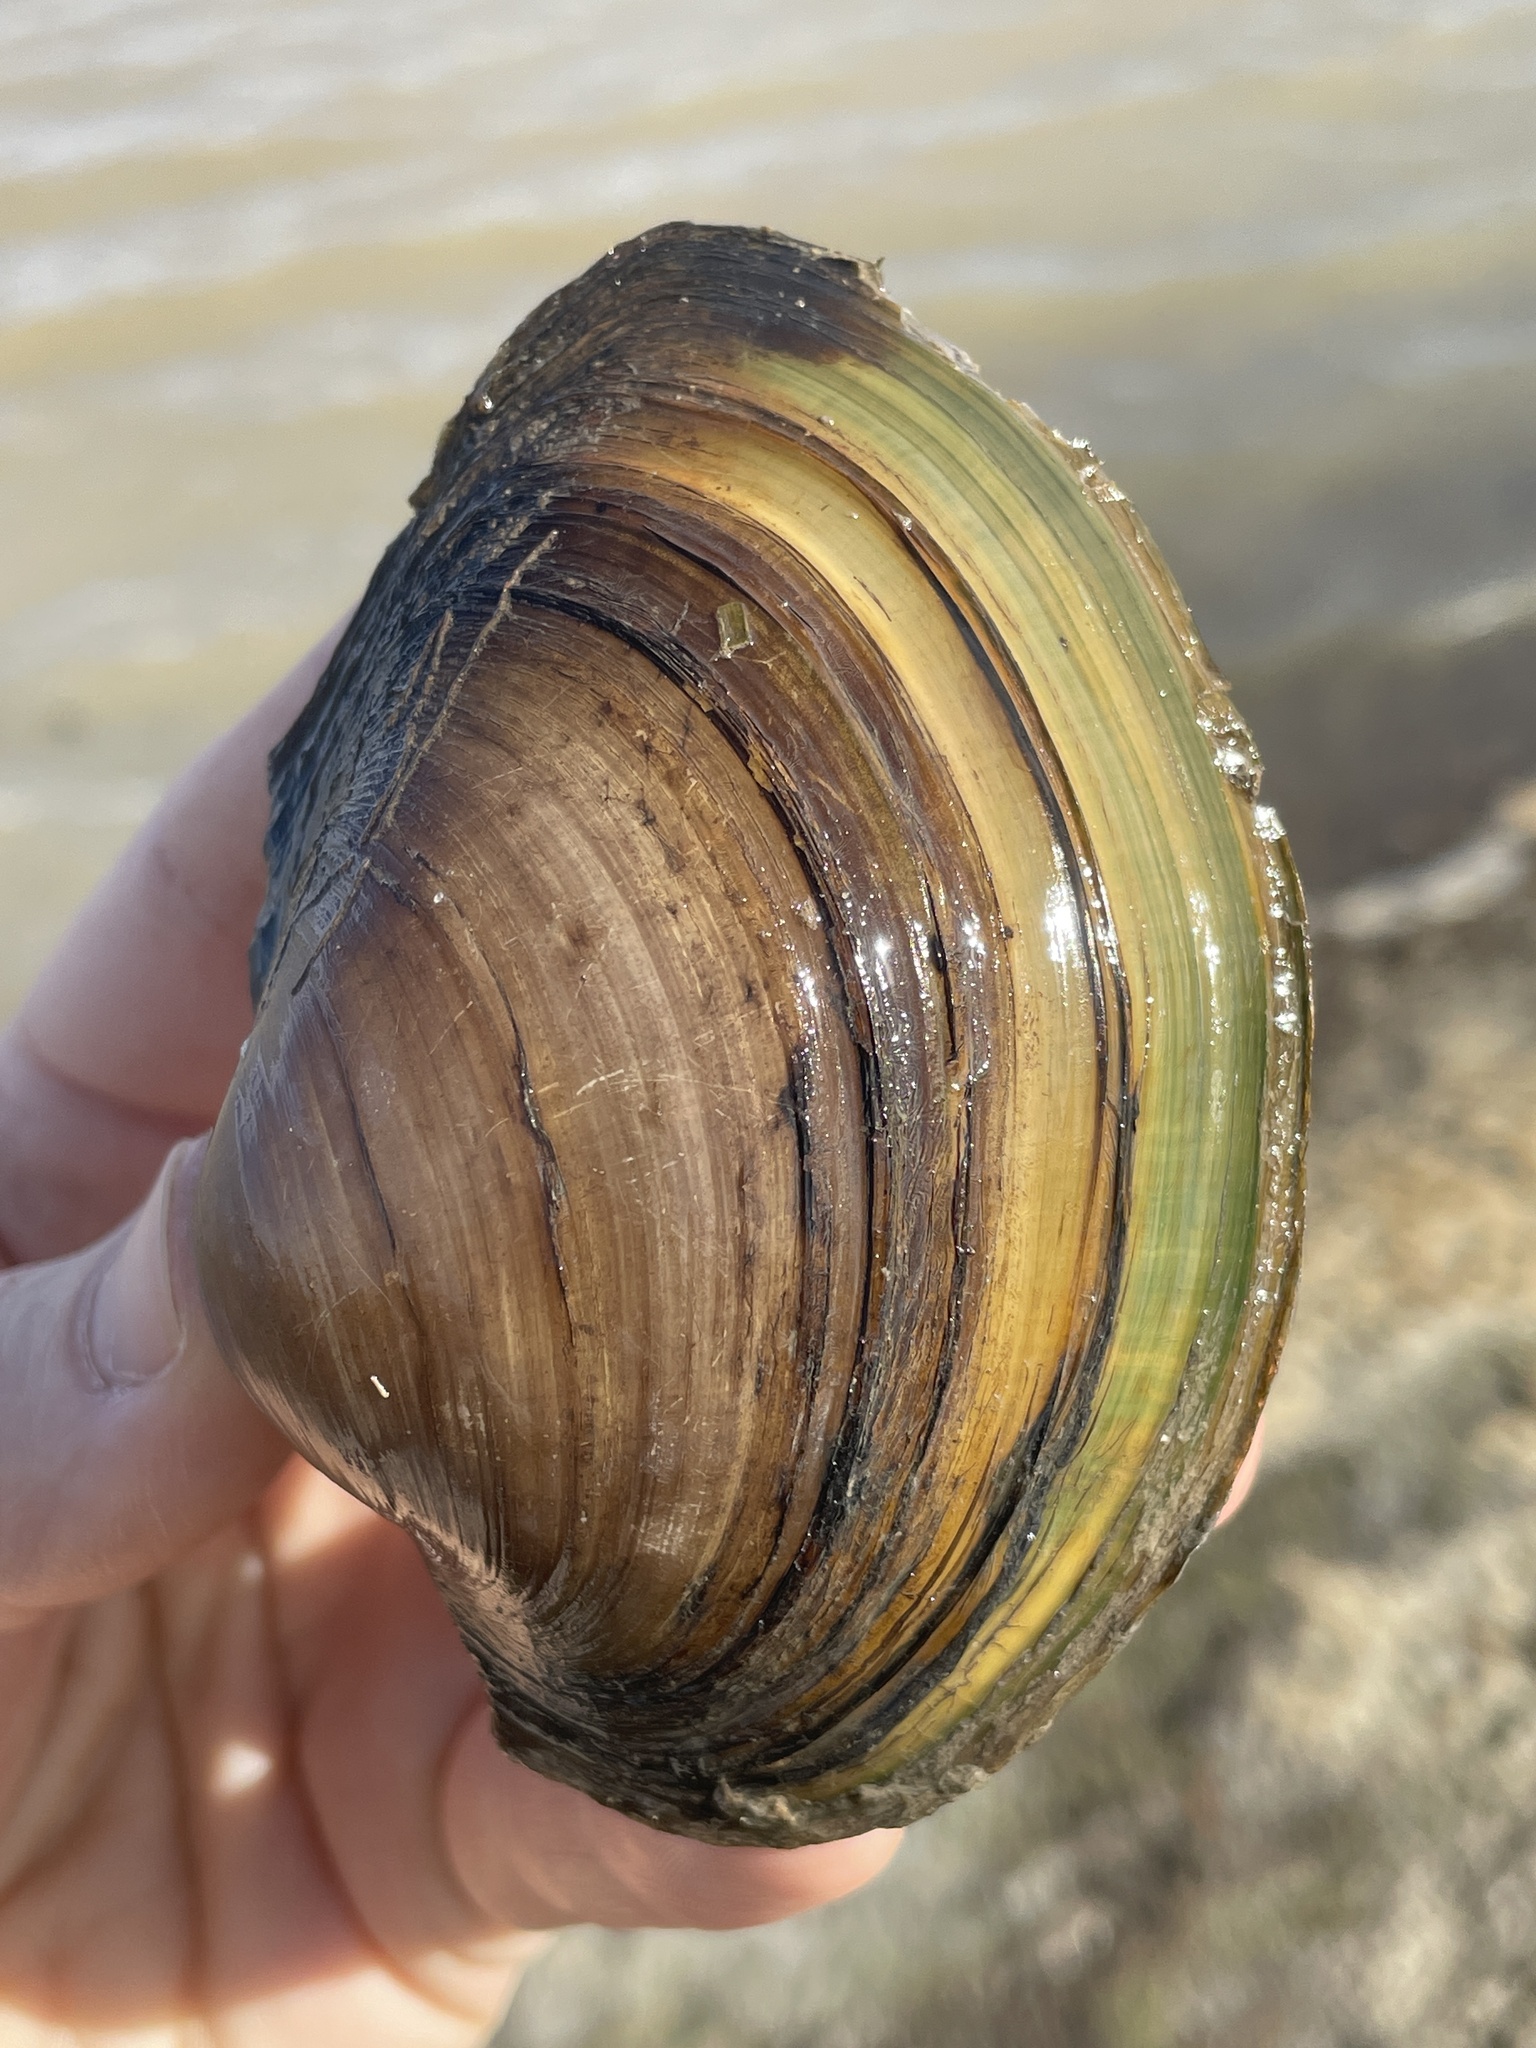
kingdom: Animalia
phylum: Mollusca
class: Bivalvia
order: Unionida
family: Unionidae
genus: Pyganodon
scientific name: Pyganodon grandis
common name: Giant floater
